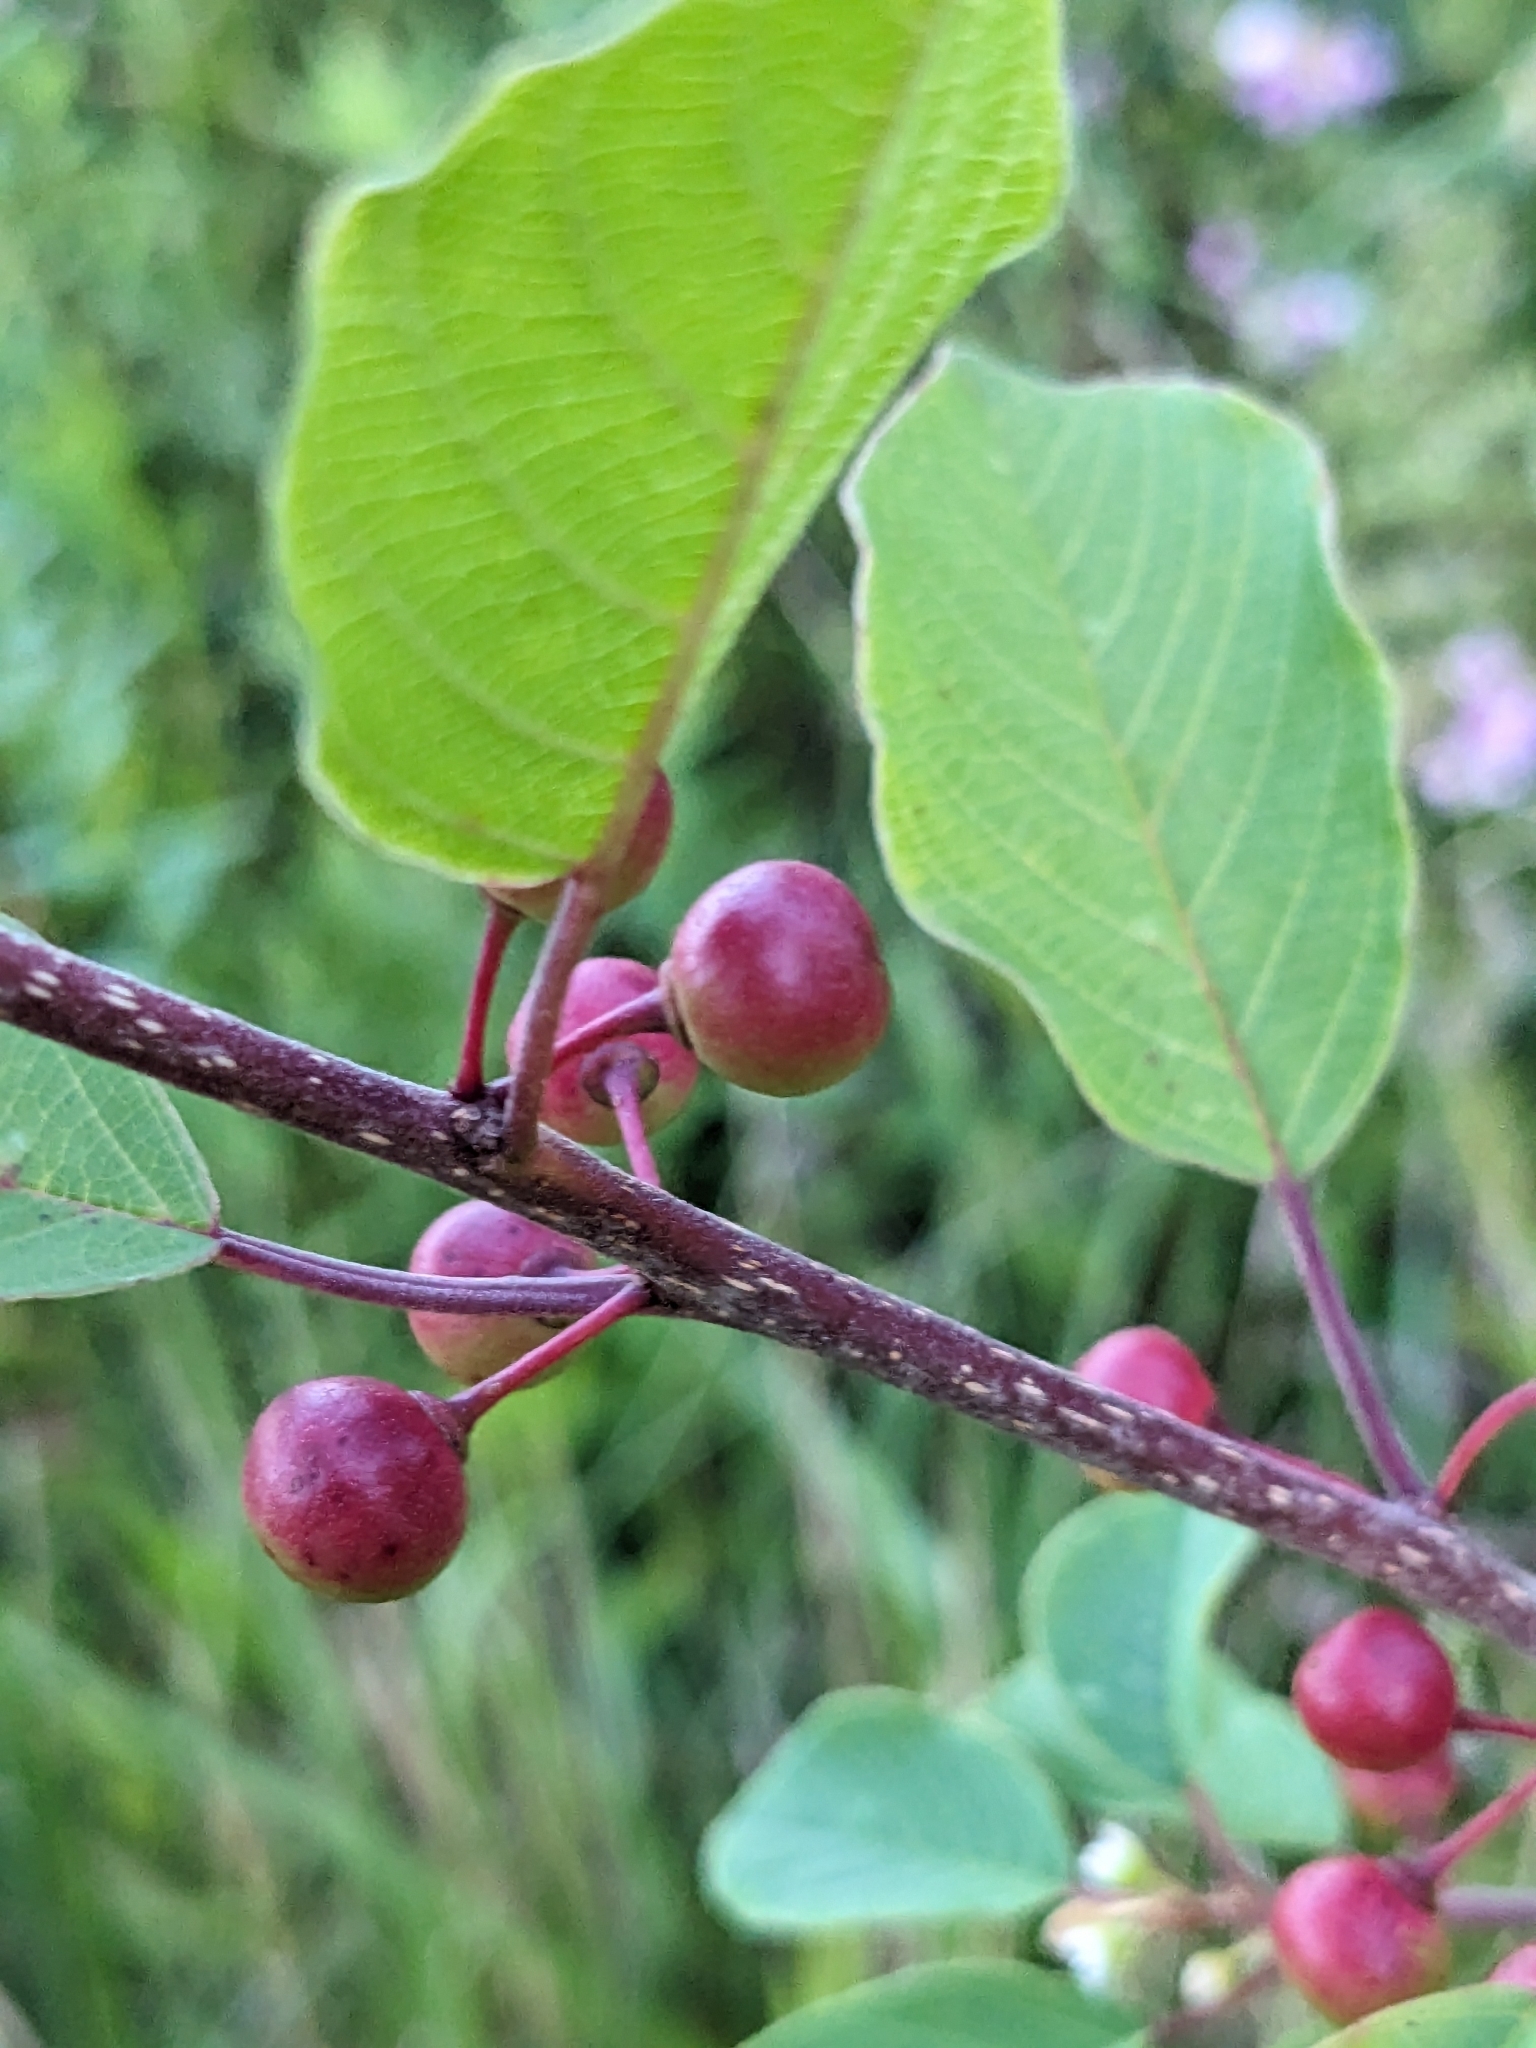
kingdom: Plantae
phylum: Tracheophyta
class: Magnoliopsida
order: Rosales
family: Rhamnaceae
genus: Frangula
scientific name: Frangula alnus
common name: Alder buckthorn
